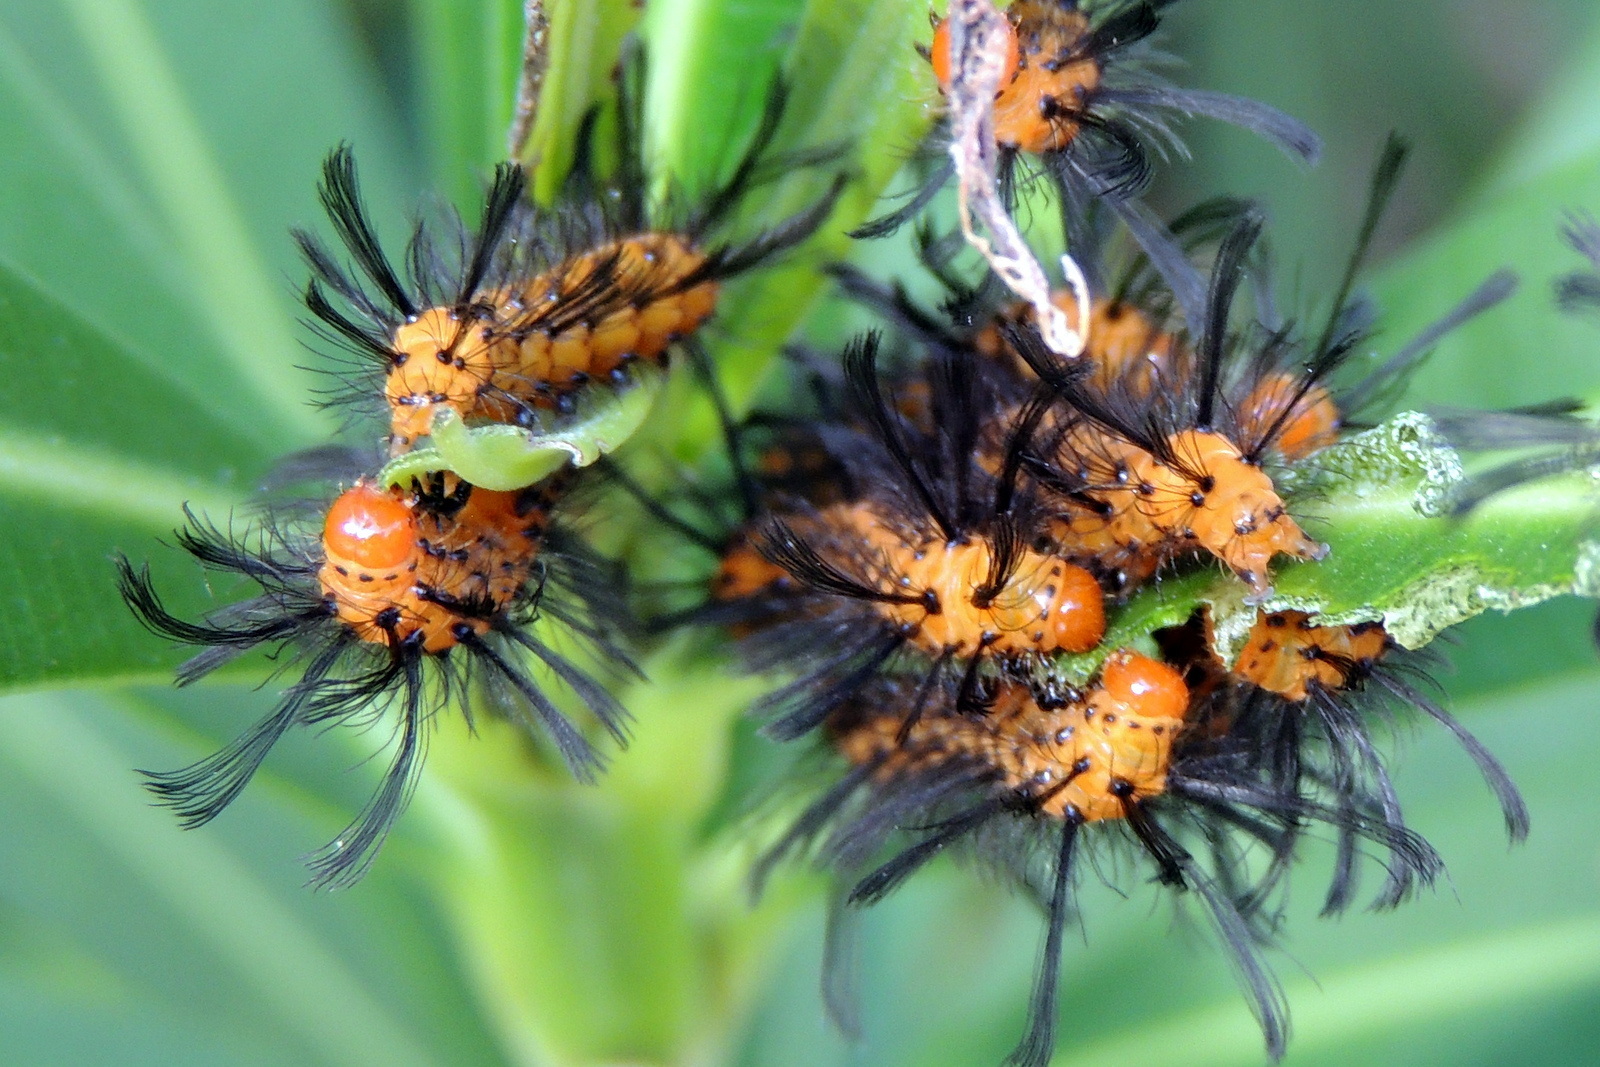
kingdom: Animalia
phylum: Arthropoda
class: Insecta
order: Lepidoptera
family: Erebidae
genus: Syntomeida
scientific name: Syntomeida epilais
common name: Polka-dot wasp moth
